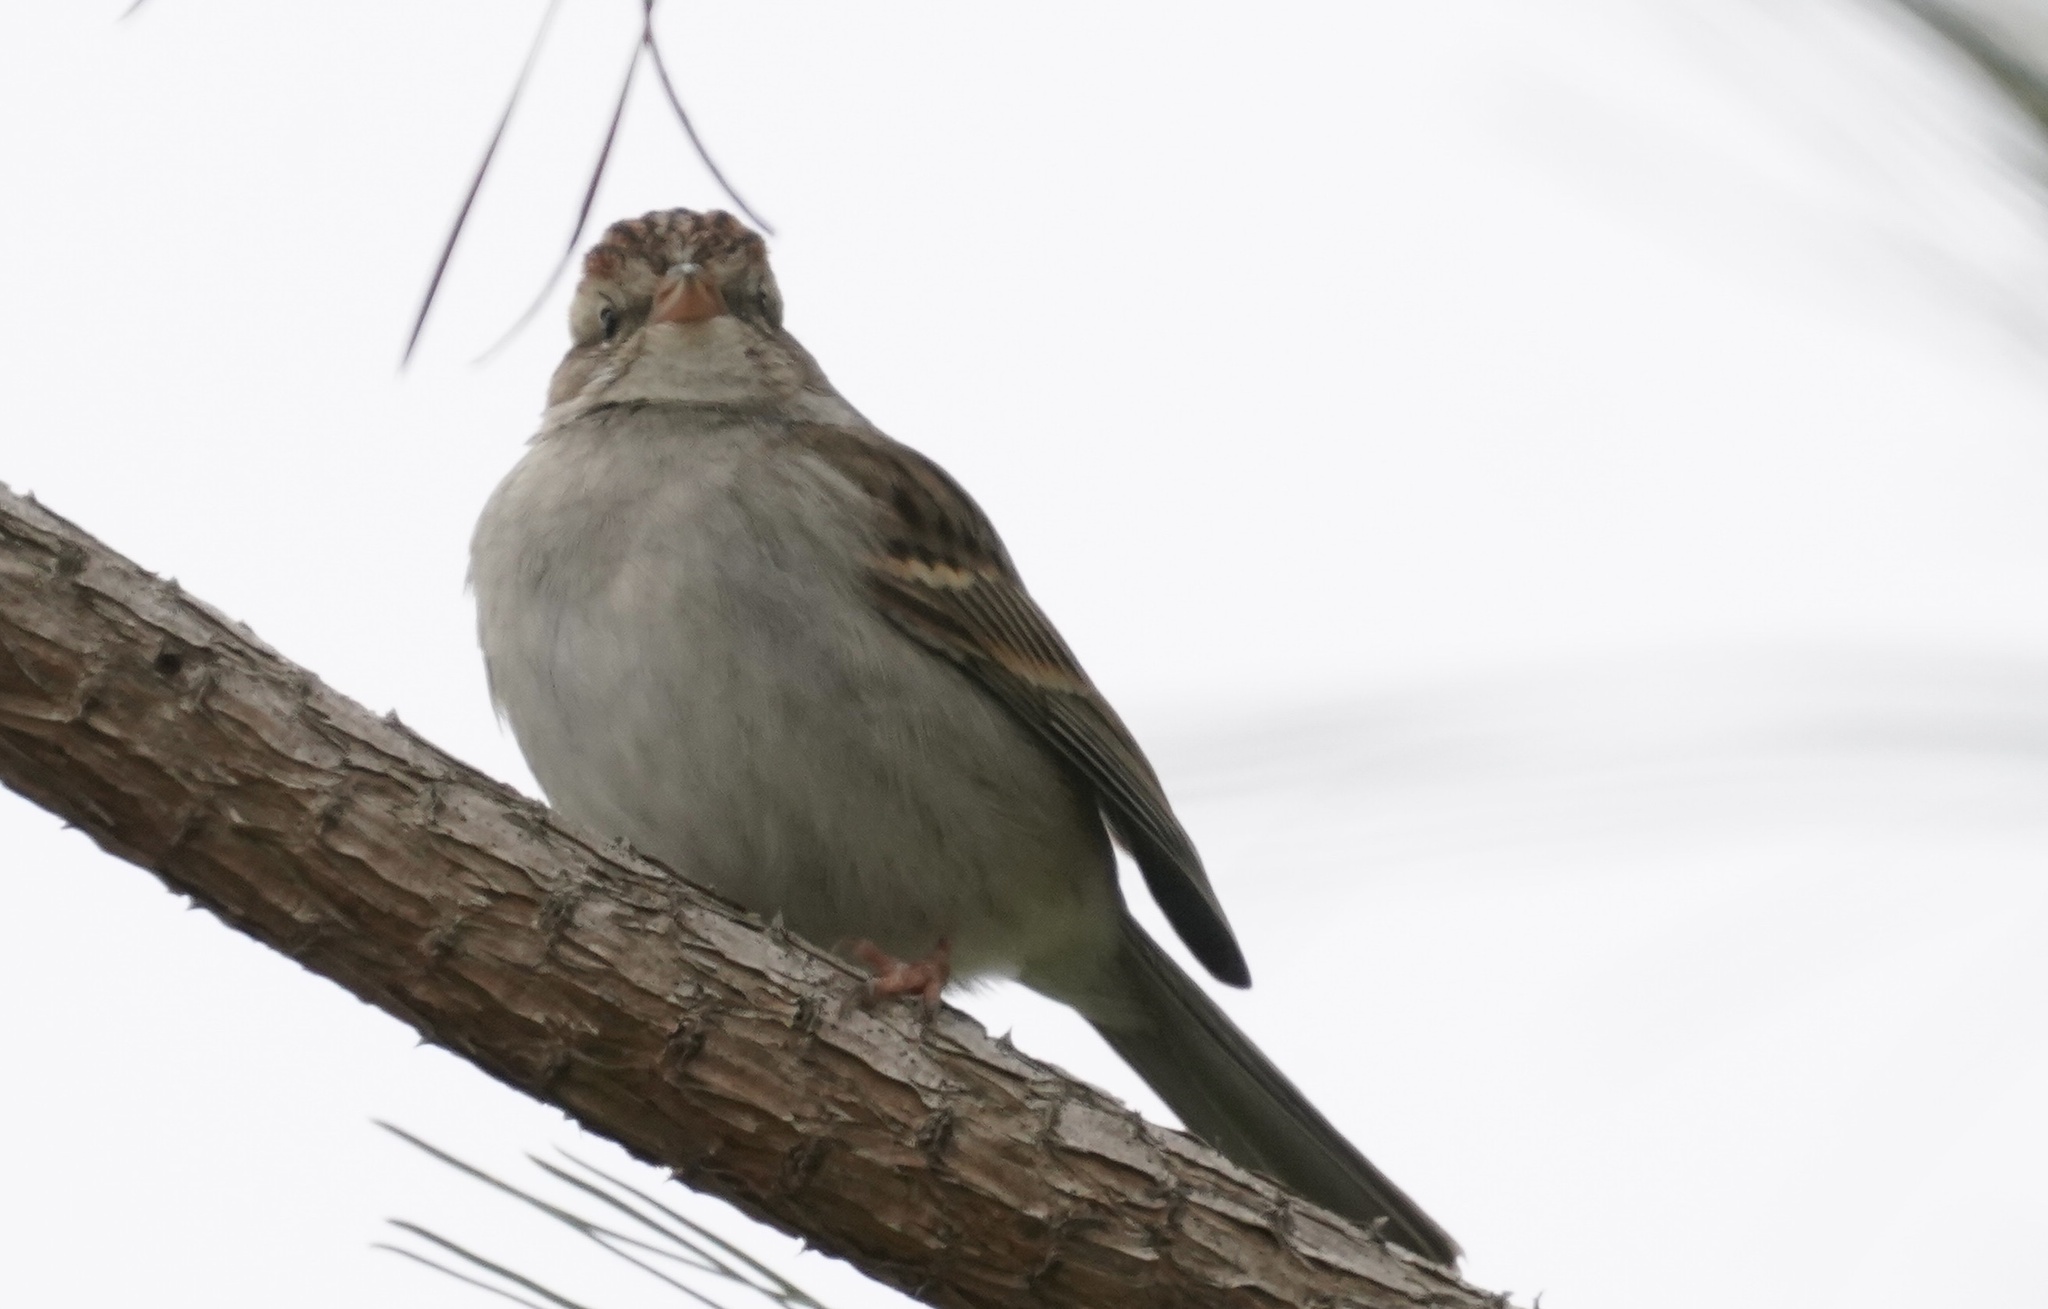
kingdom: Animalia
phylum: Chordata
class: Aves
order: Passeriformes
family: Passerellidae
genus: Spizella
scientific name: Spizella passerina
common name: Chipping sparrow
